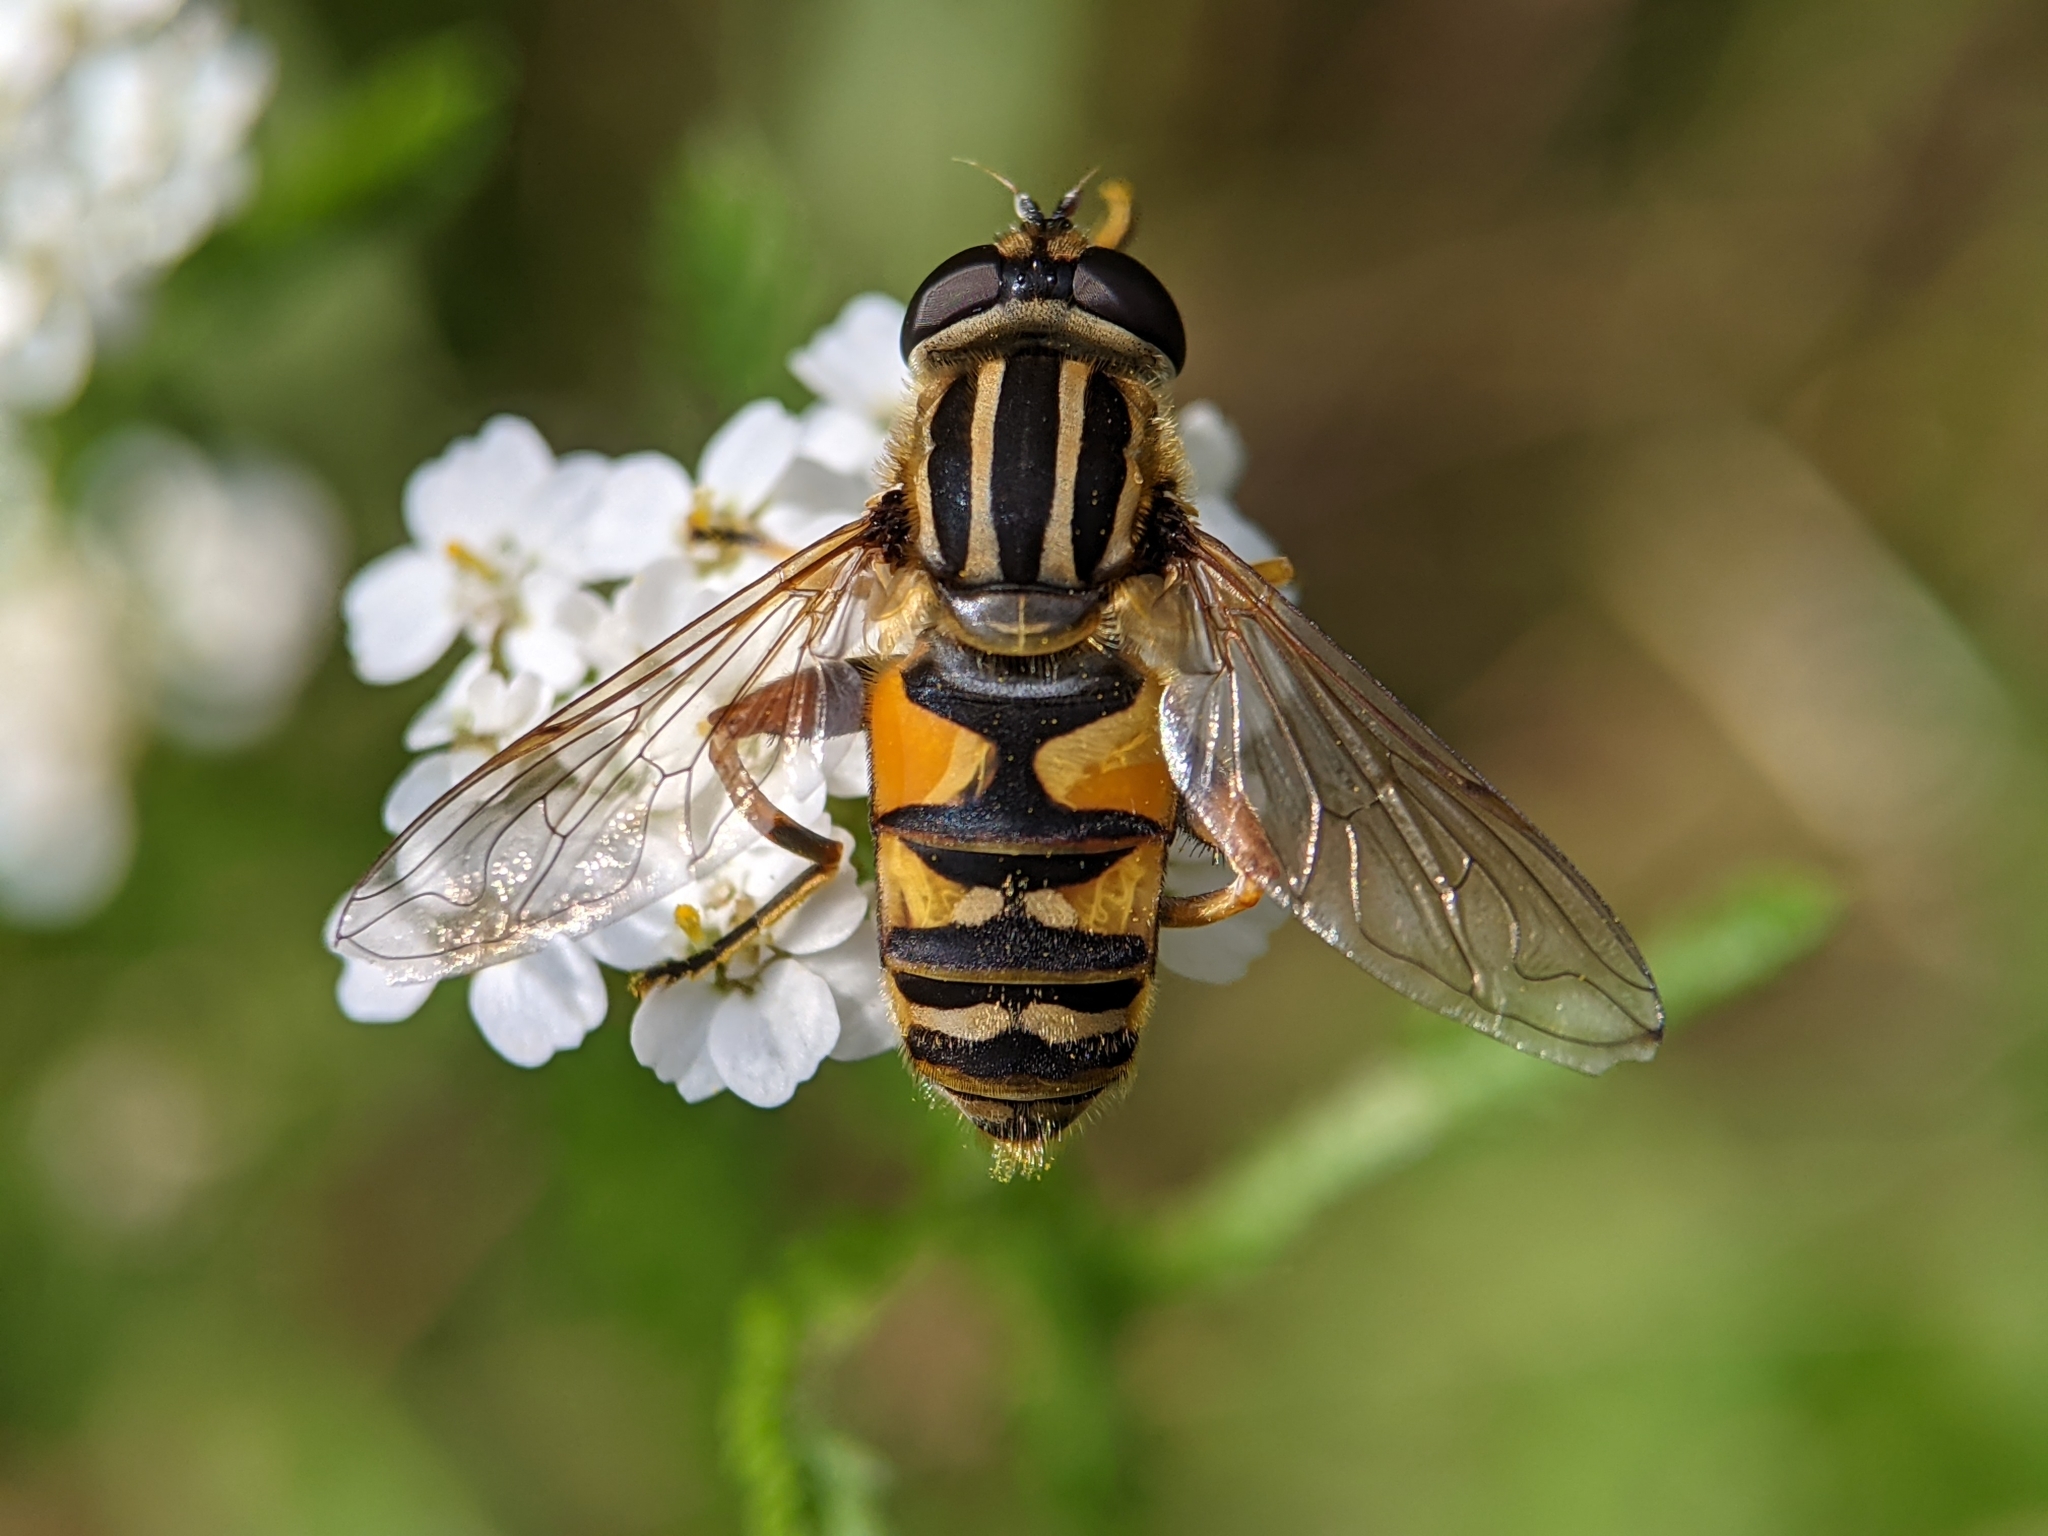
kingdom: Animalia
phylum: Arthropoda
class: Insecta
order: Diptera
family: Syrphidae
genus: Helophilus
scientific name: Helophilus pendulus
